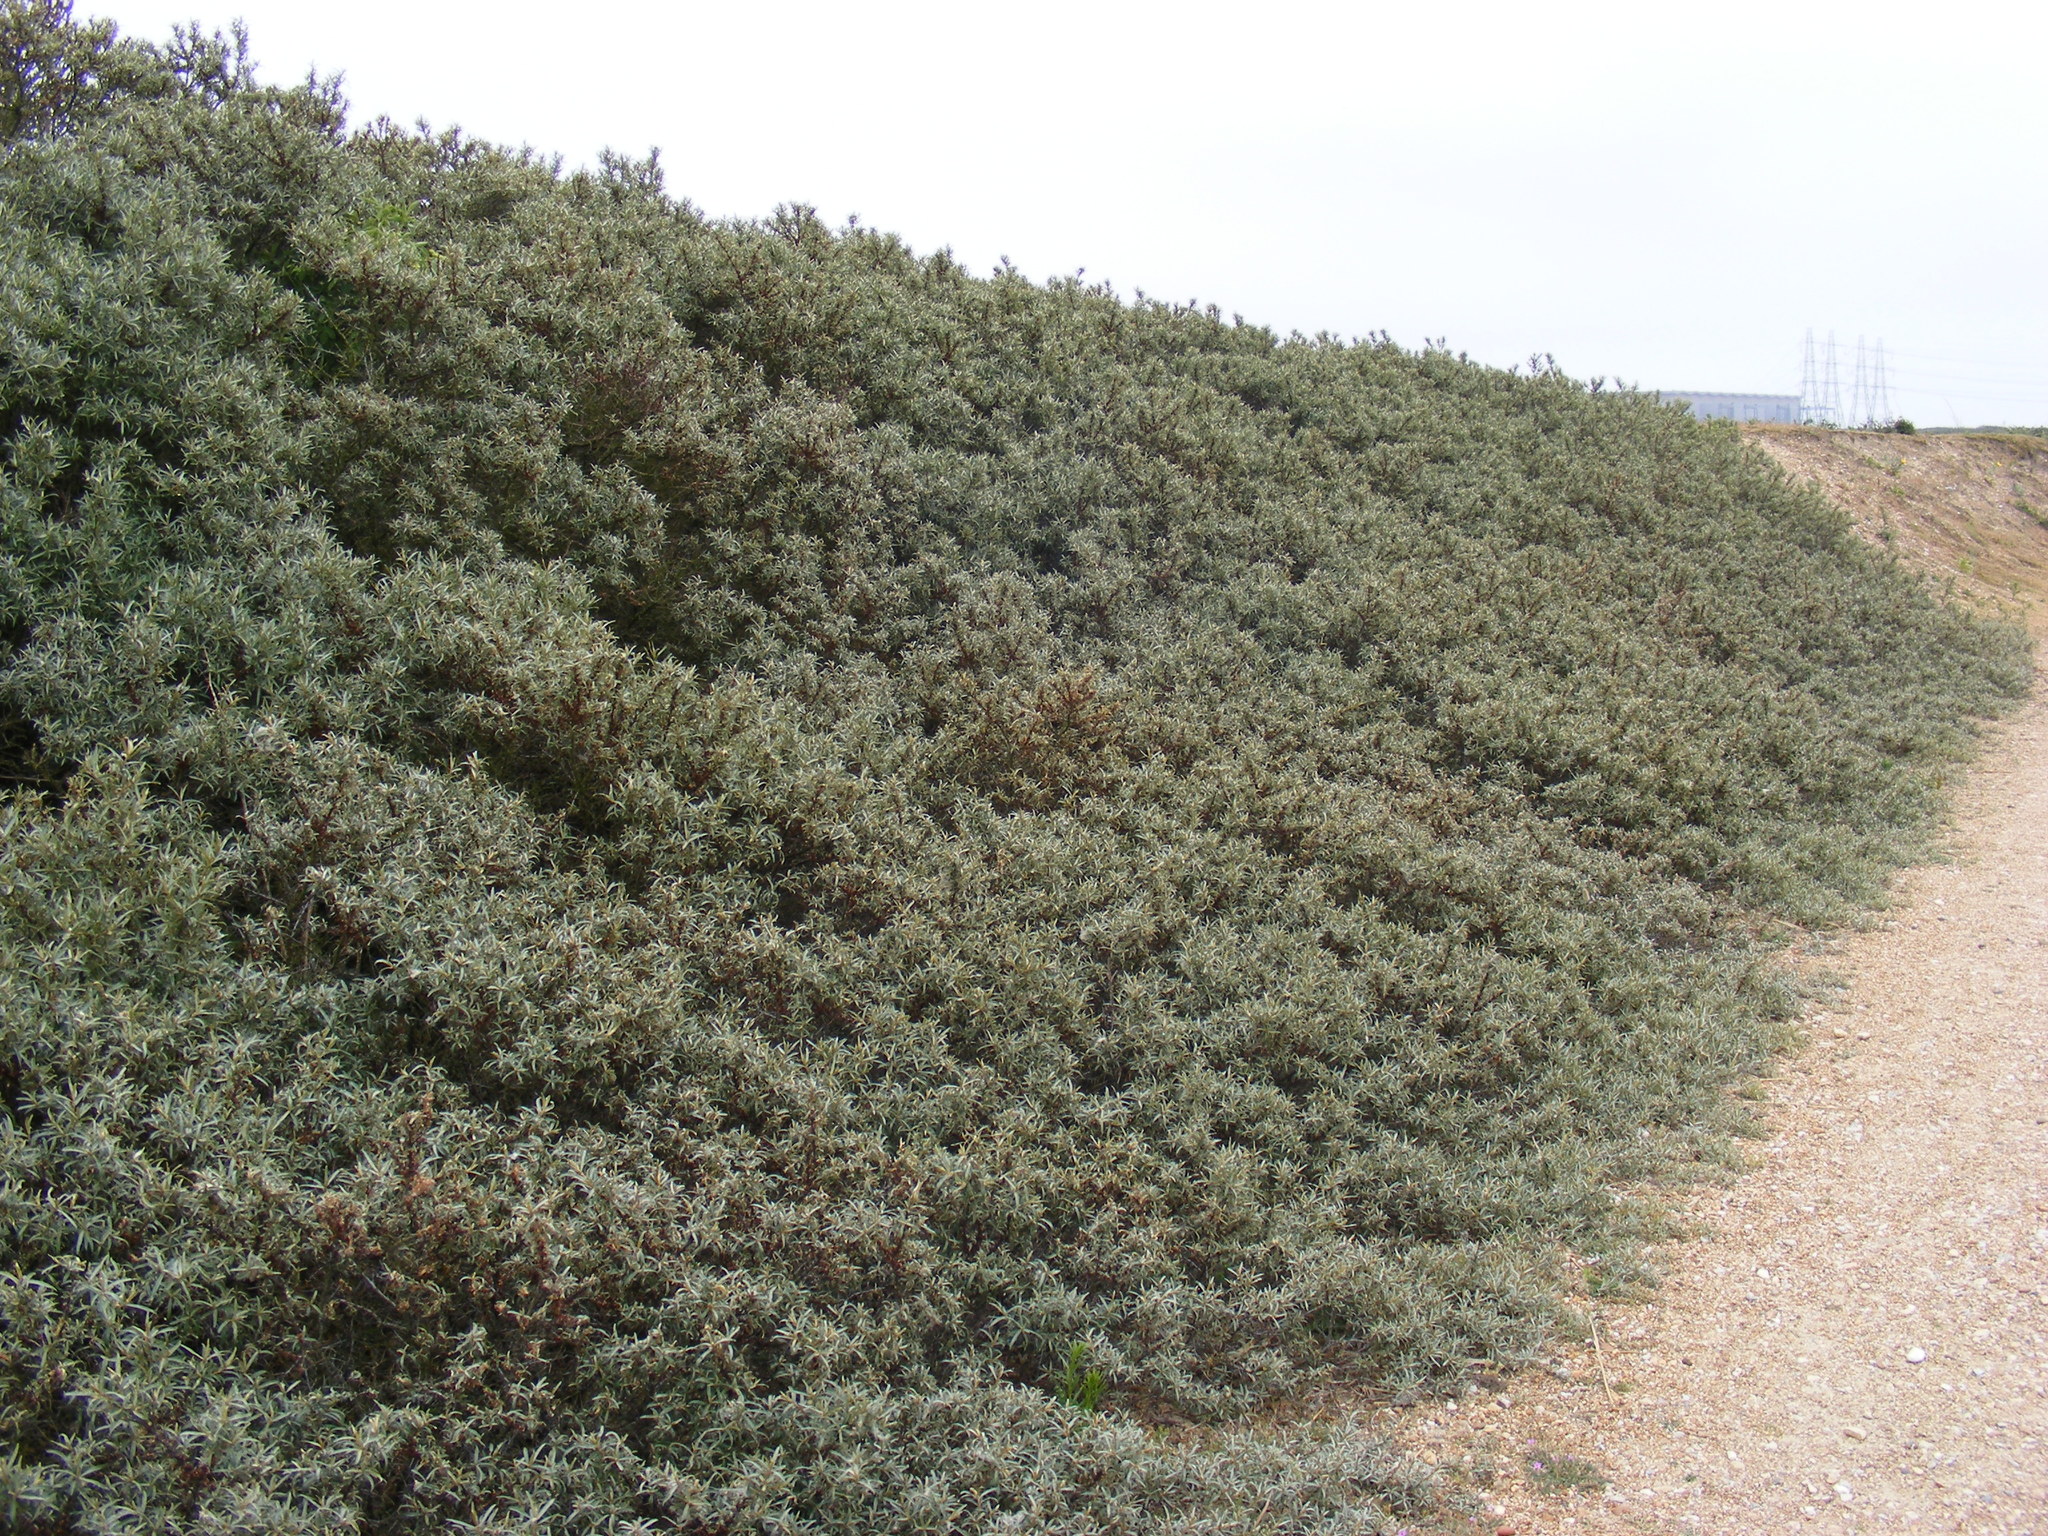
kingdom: Plantae
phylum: Tracheophyta
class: Magnoliopsida
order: Rosales
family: Elaeagnaceae
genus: Hippophae
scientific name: Hippophae rhamnoides
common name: Sea-buckthorn
